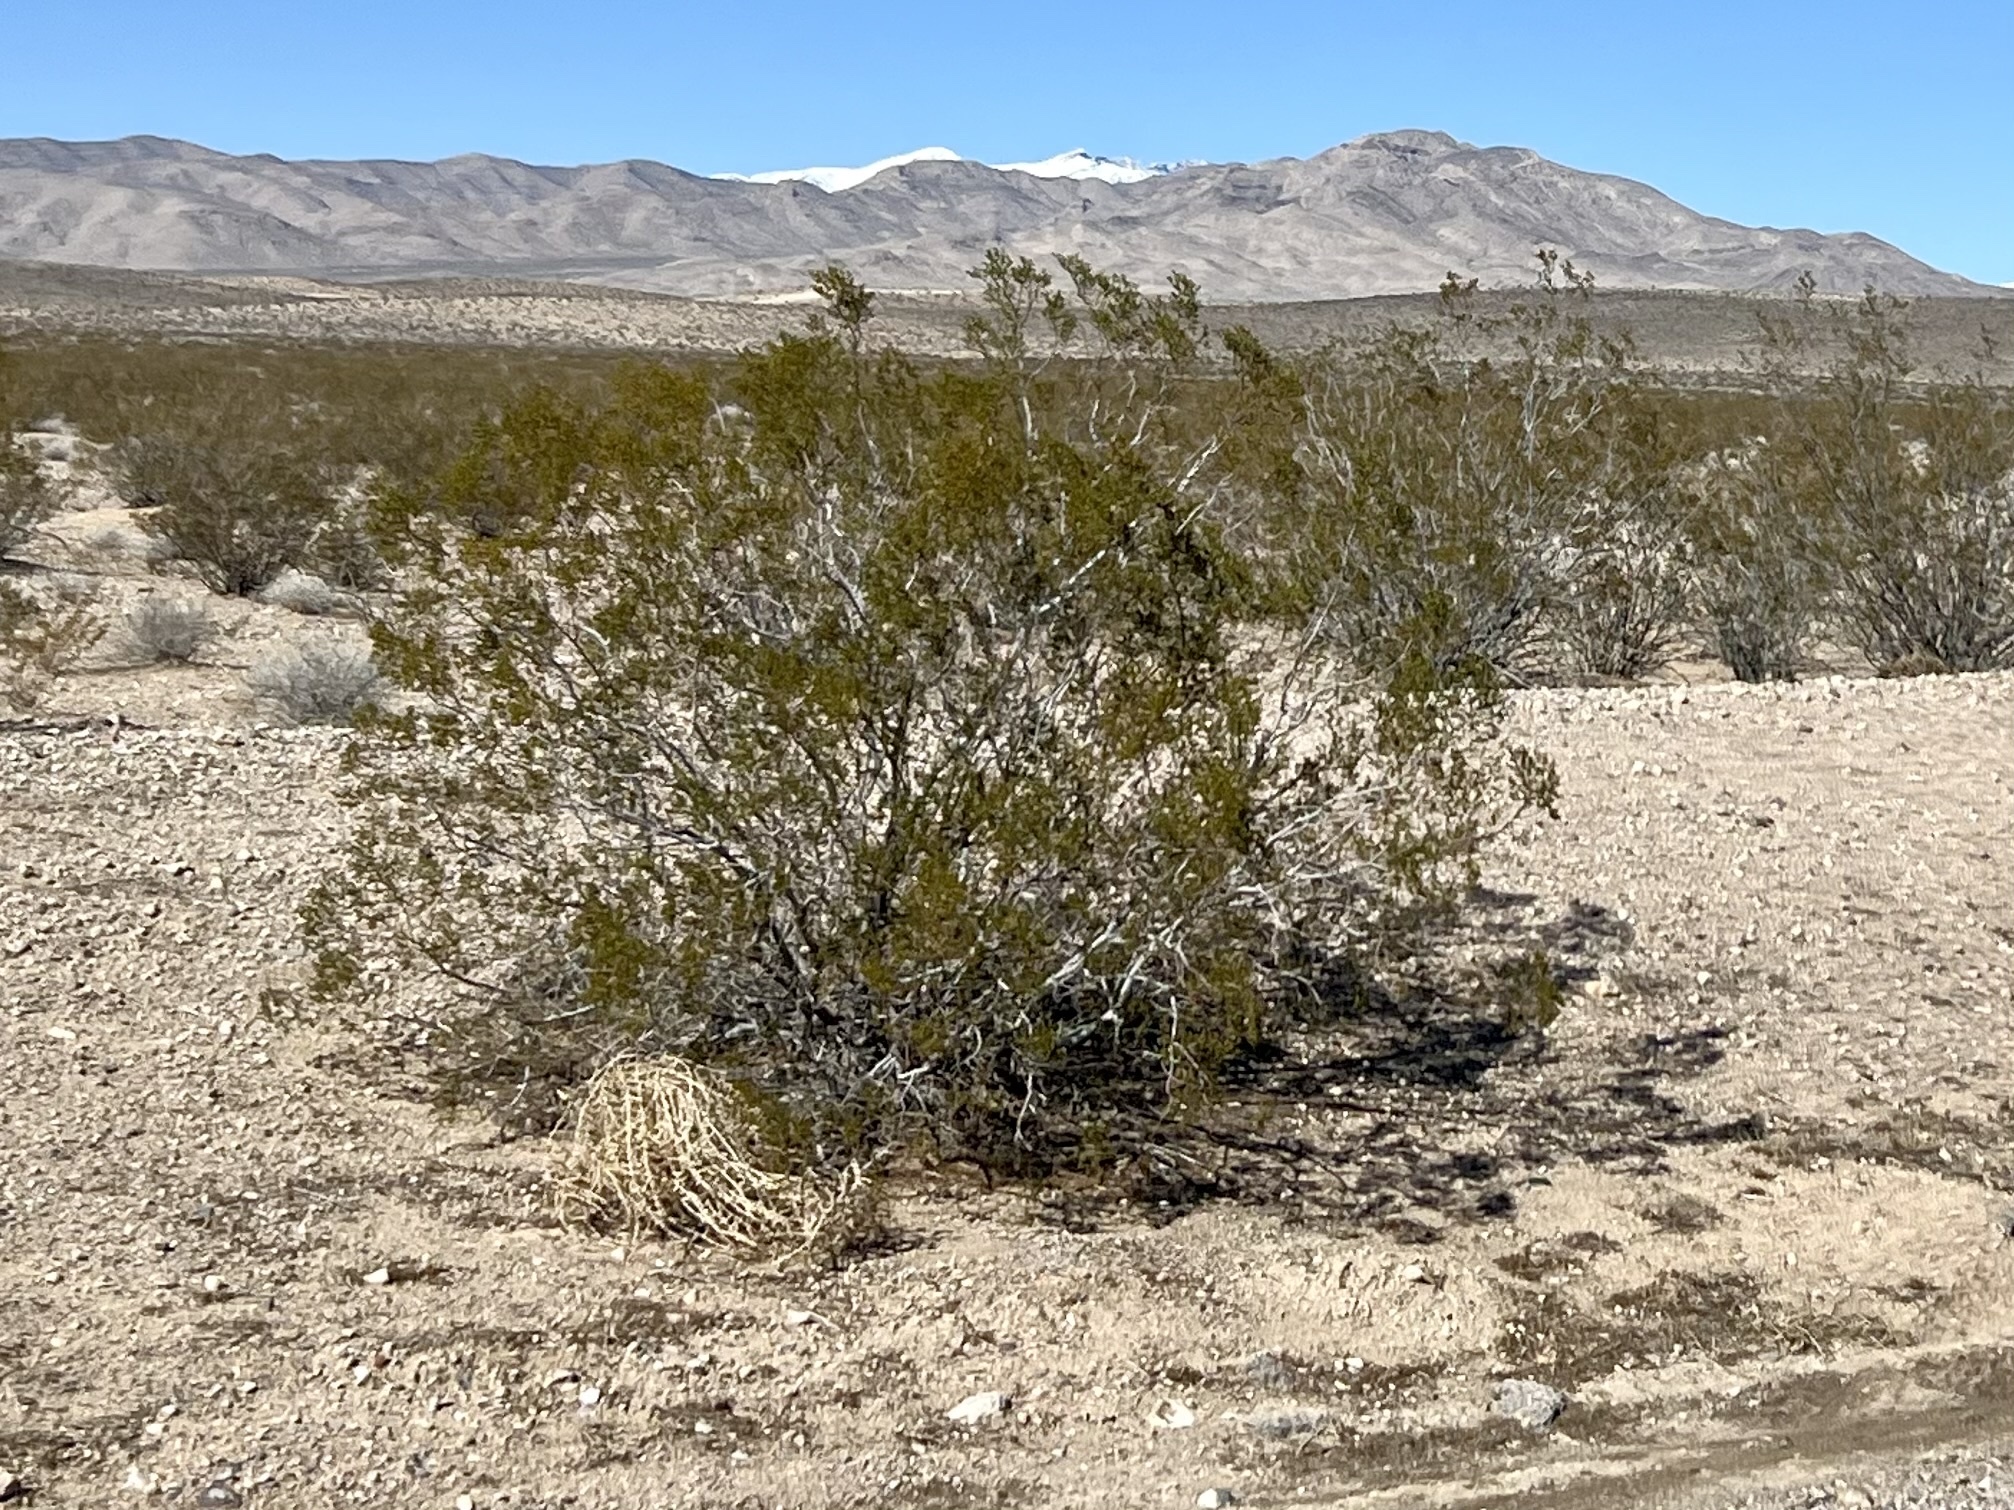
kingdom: Plantae
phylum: Tracheophyta
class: Magnoliopsida
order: Zygophyllales
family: Zygophyllaceae
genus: Larrea
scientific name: Larrea tridentata
